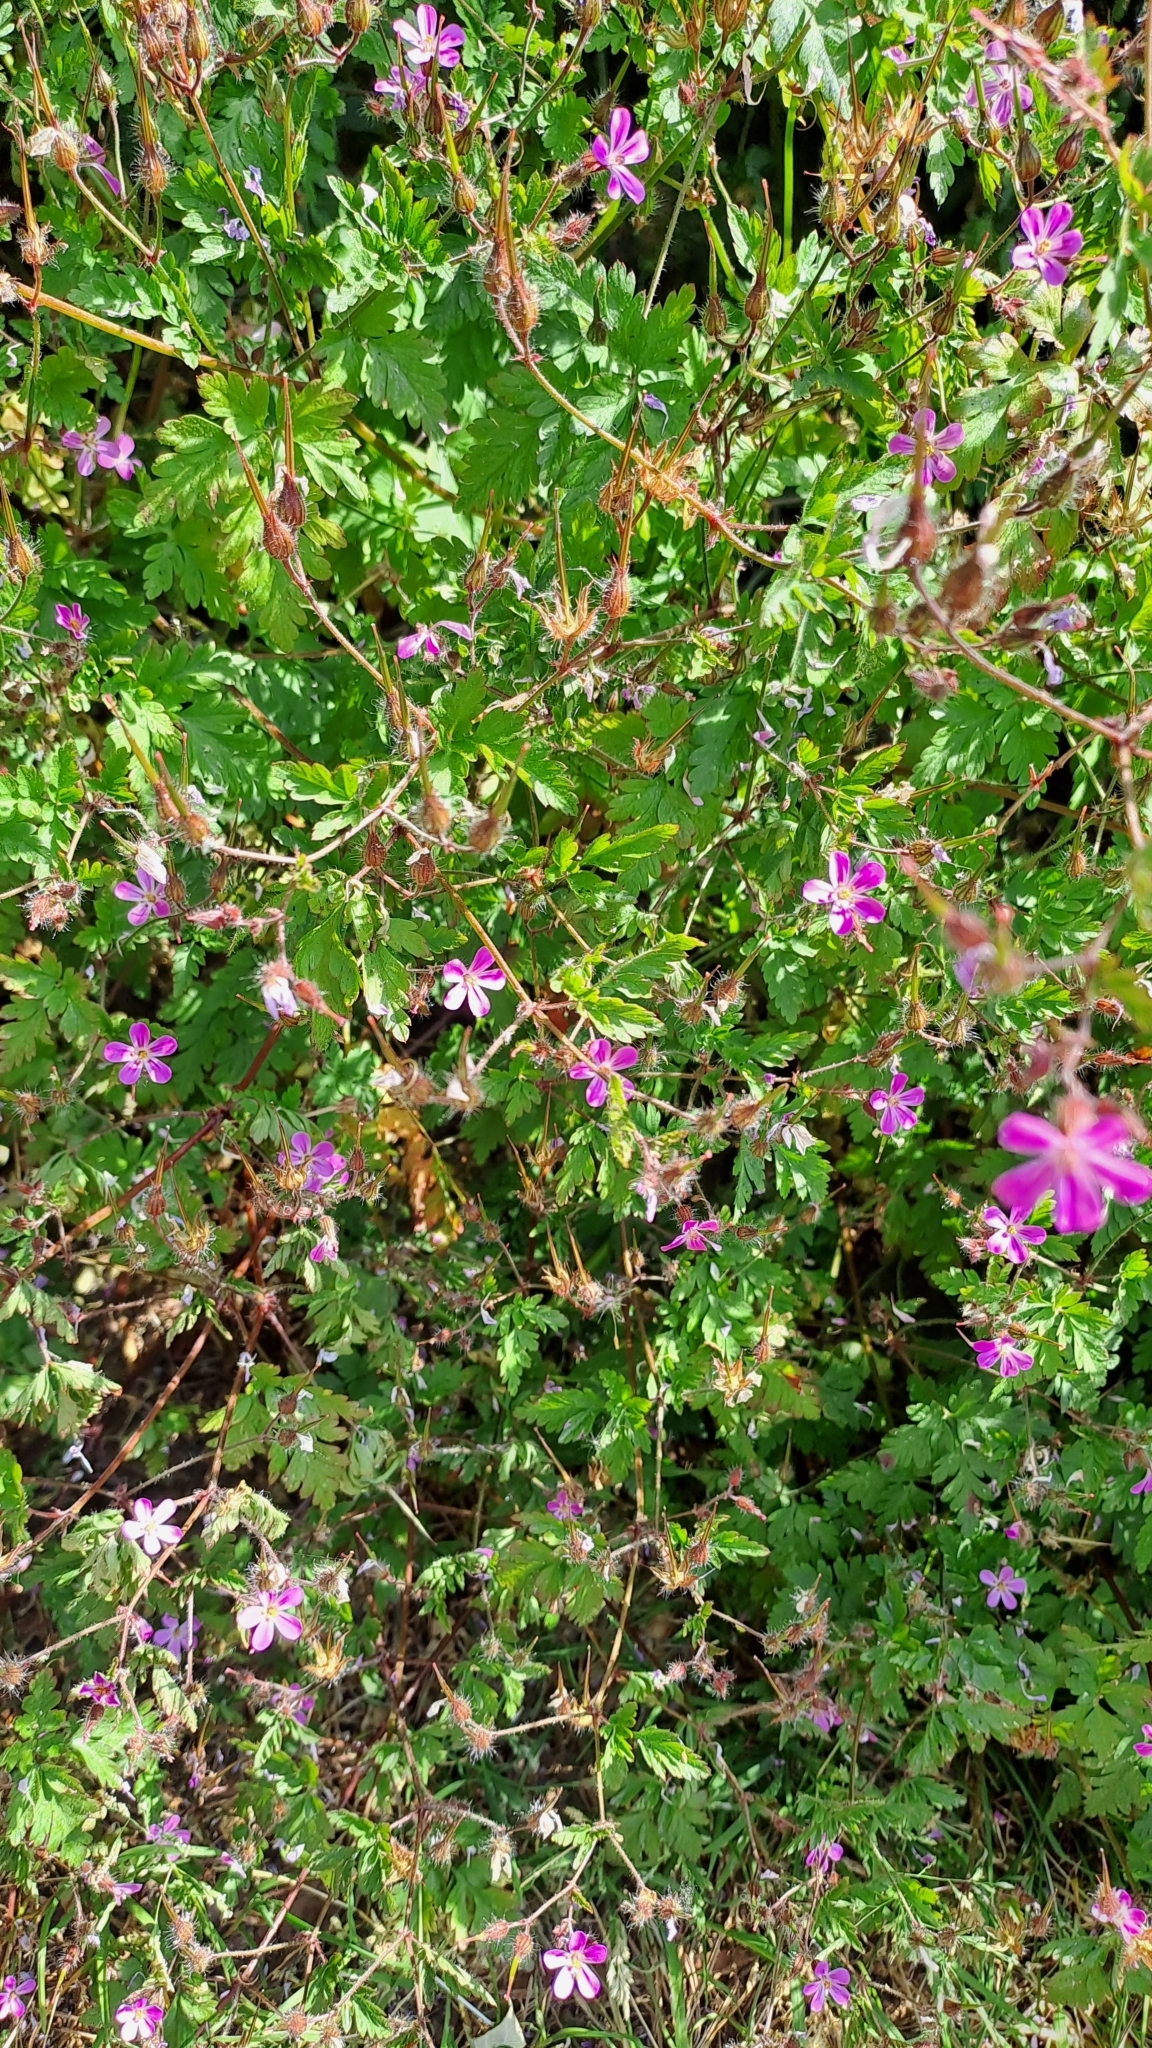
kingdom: Plantae
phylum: Tracheophyta
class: Magnoliopsida
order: Geraniales
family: Geraniaceae
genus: Geranium
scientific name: Geranium robertianum
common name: Herb-robert
